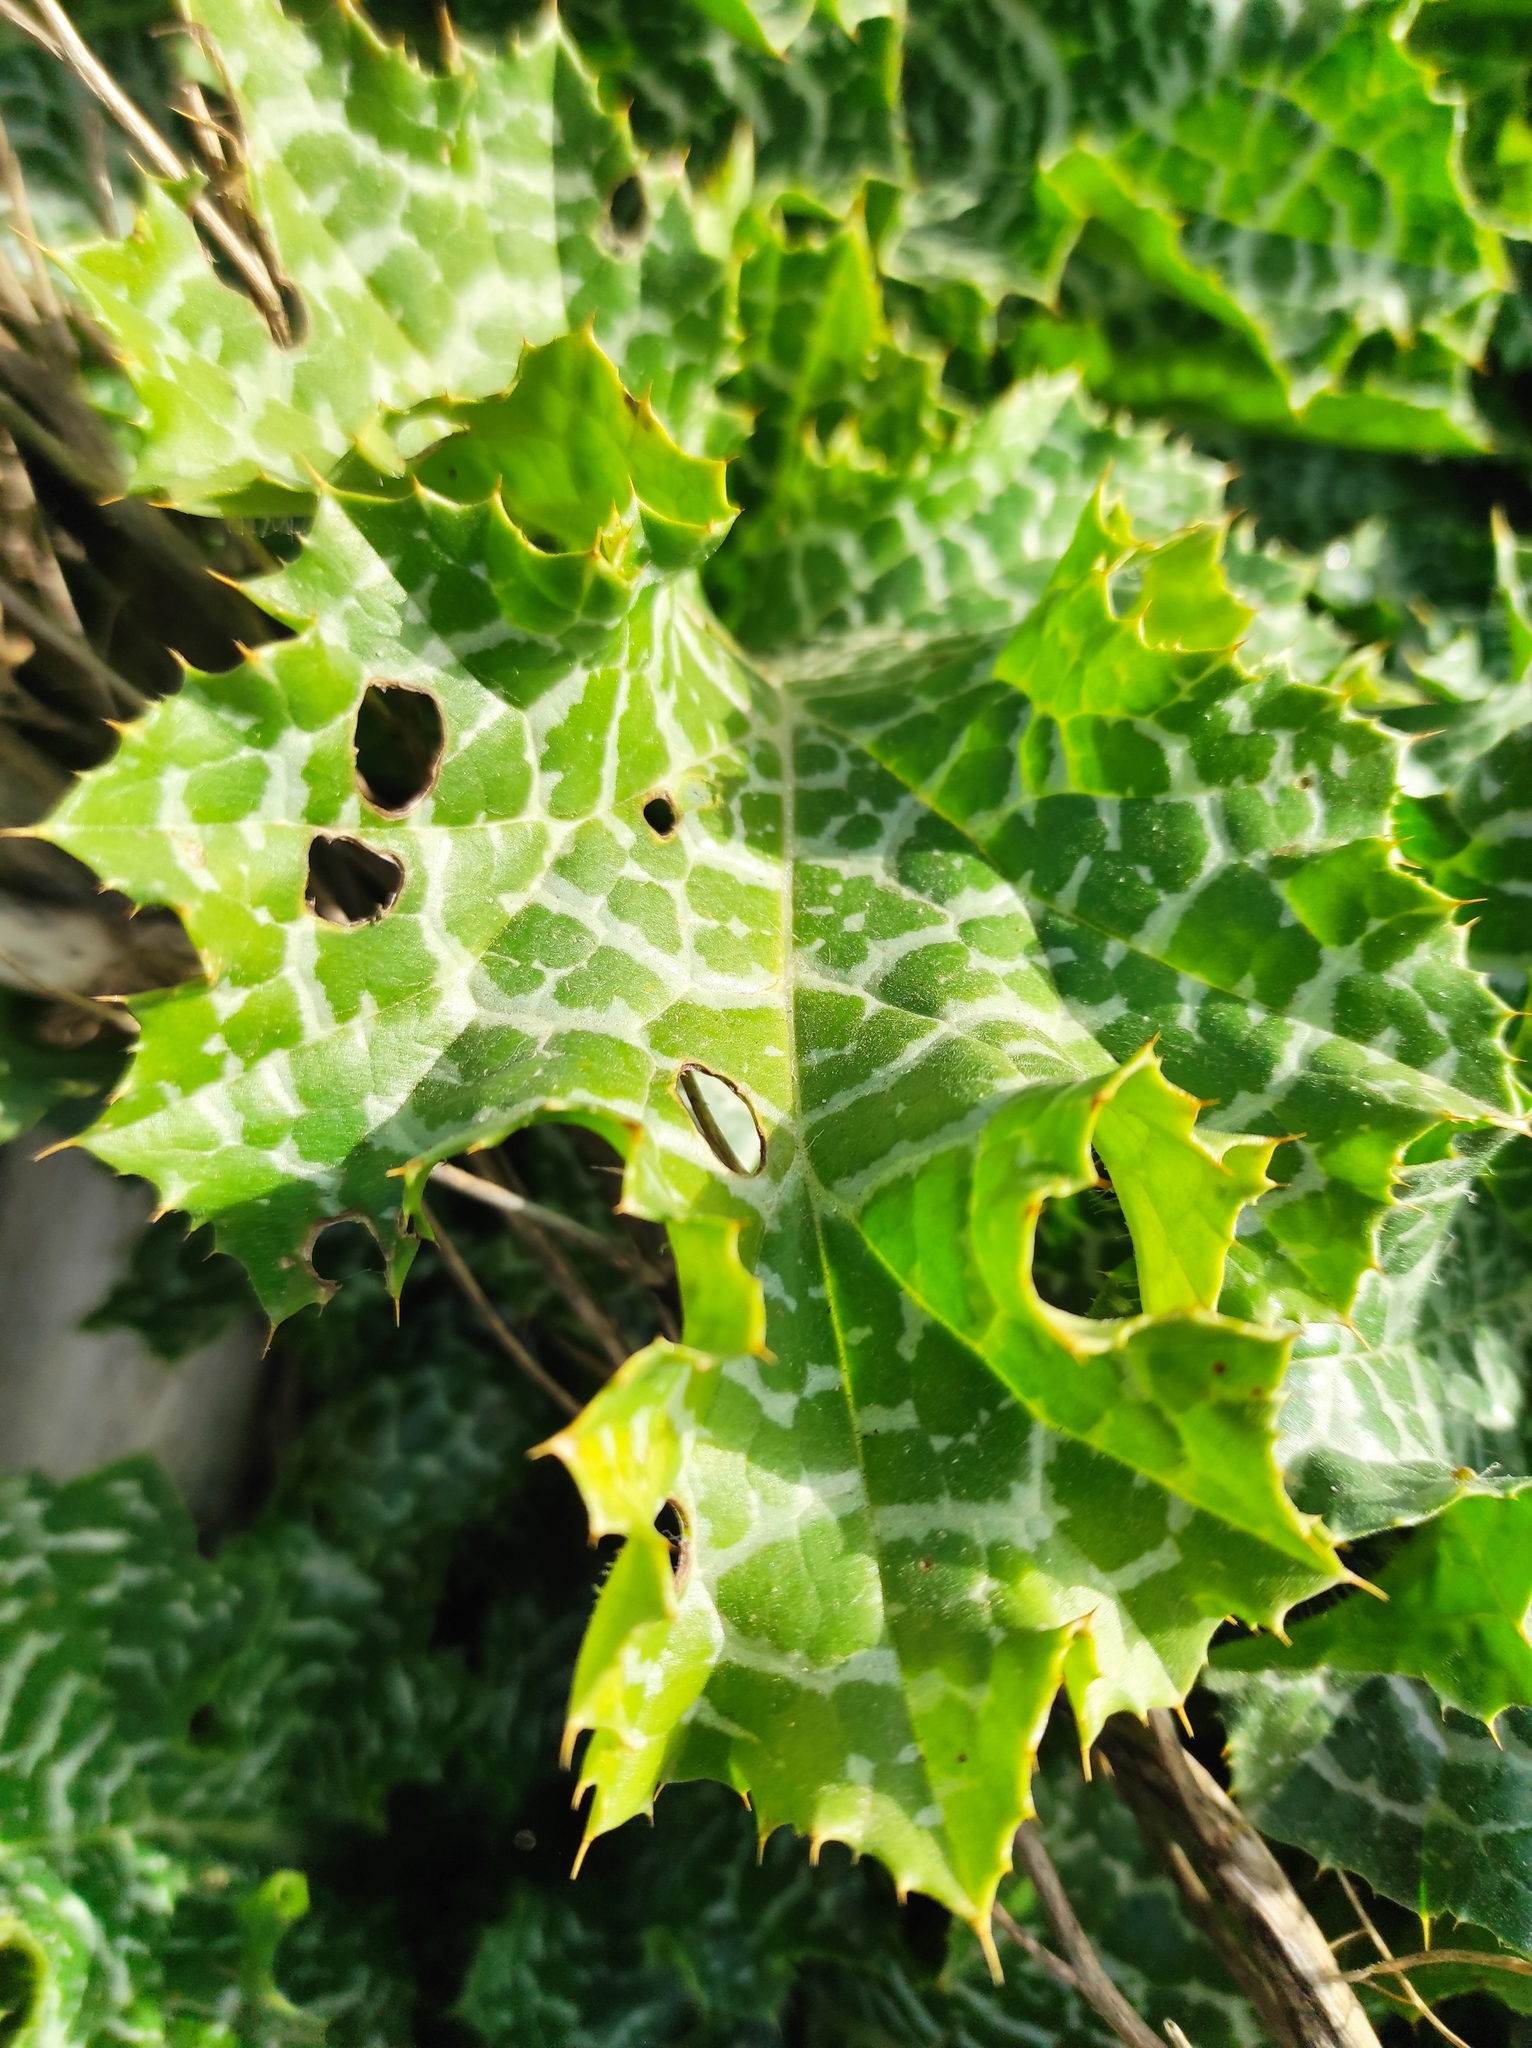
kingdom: Plantae
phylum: Tracheophyta
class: Magnoliopsida
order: Asterales
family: Asteraceae
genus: Silybum
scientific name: Silybum marianum
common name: Milk thistle
